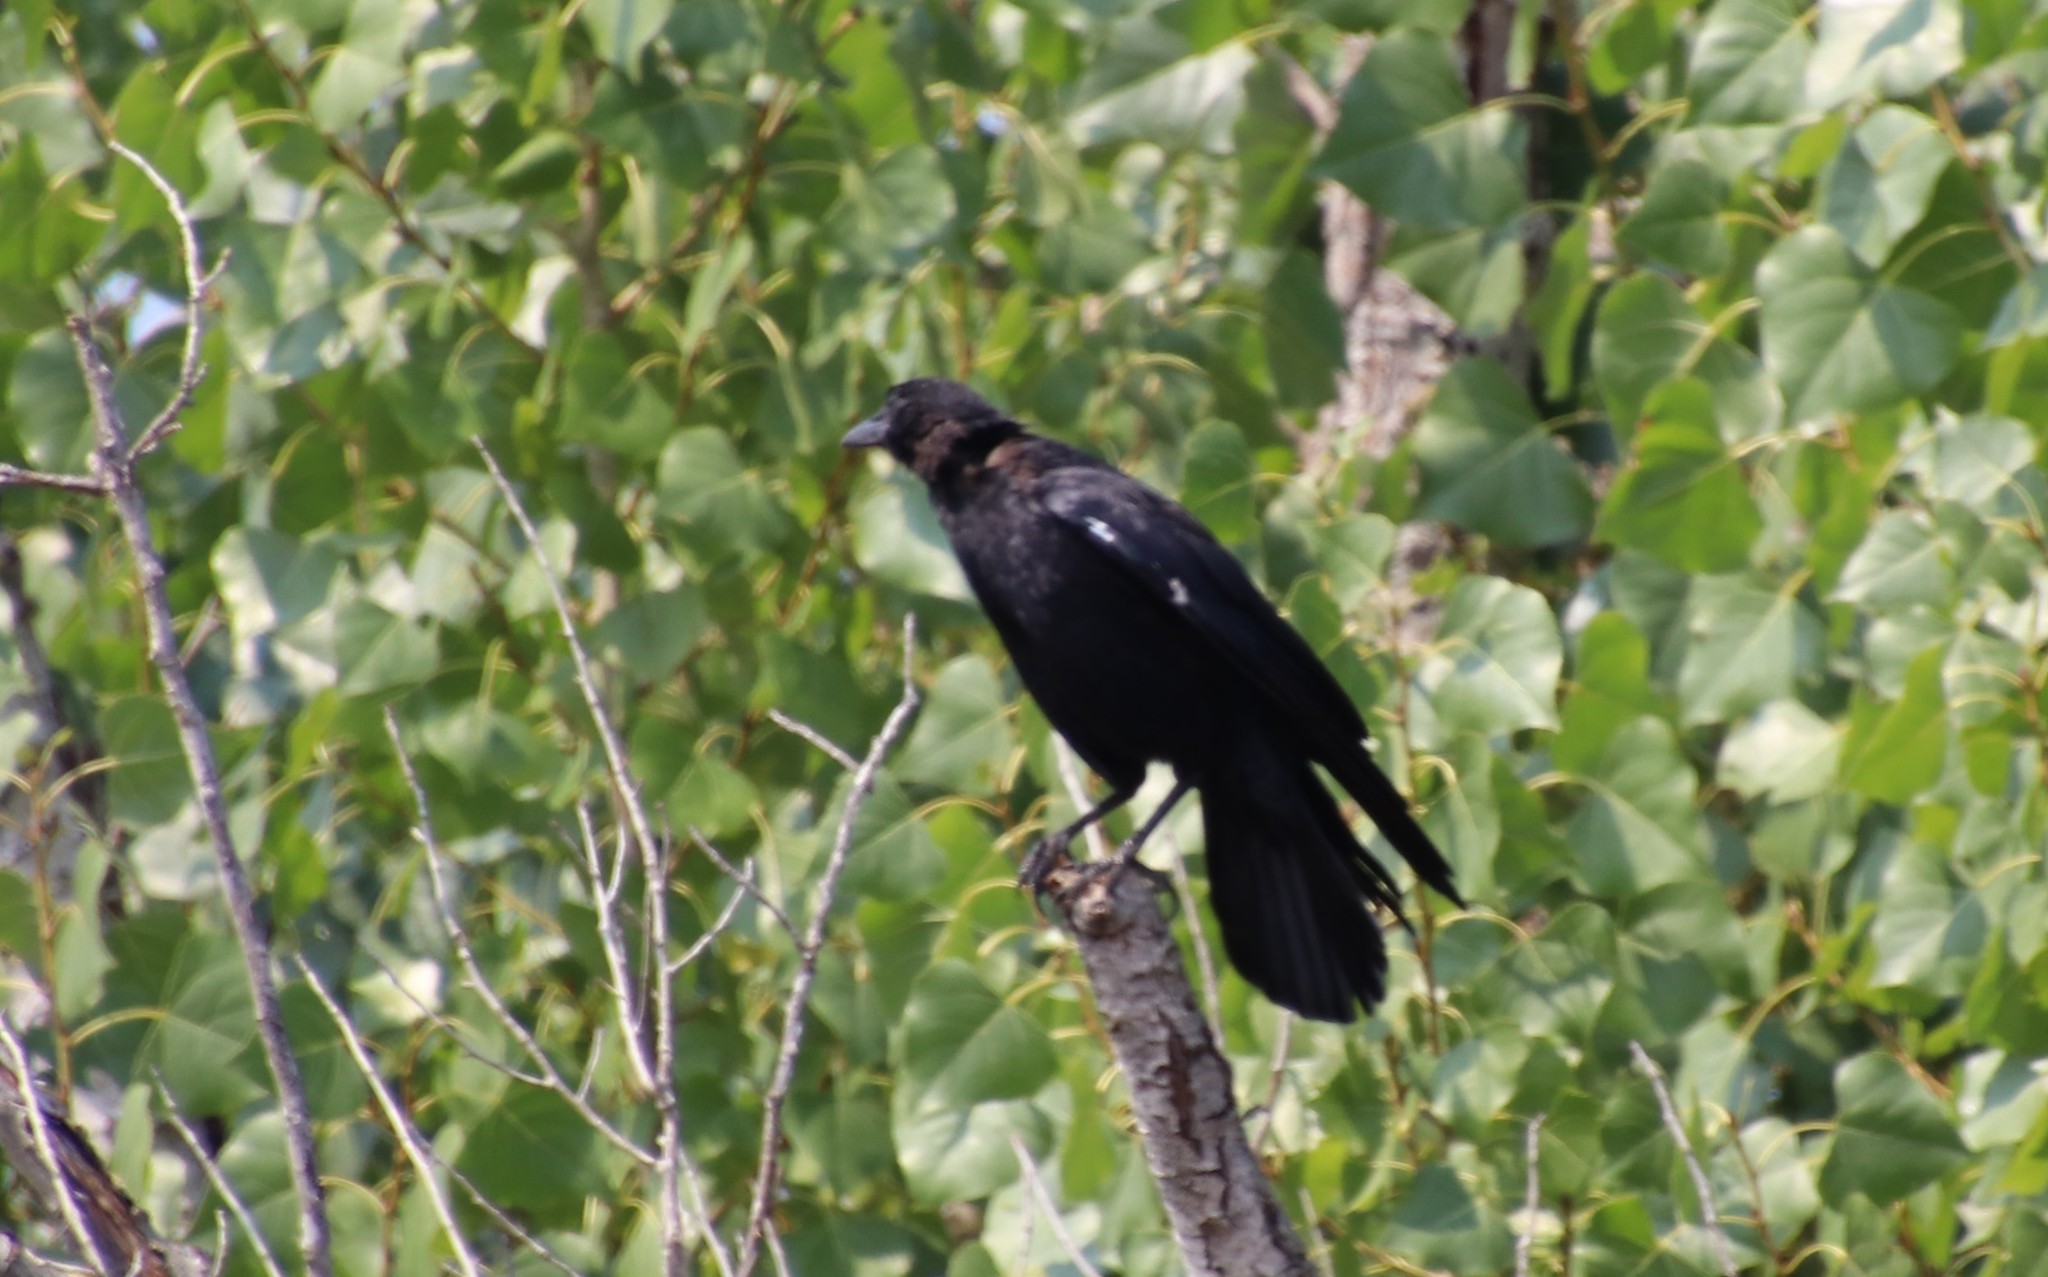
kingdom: Animalia
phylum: Chordata
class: Aves
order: Passeriformes
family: Corvidae
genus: Corvus
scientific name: Corvus corax
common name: Common raven
